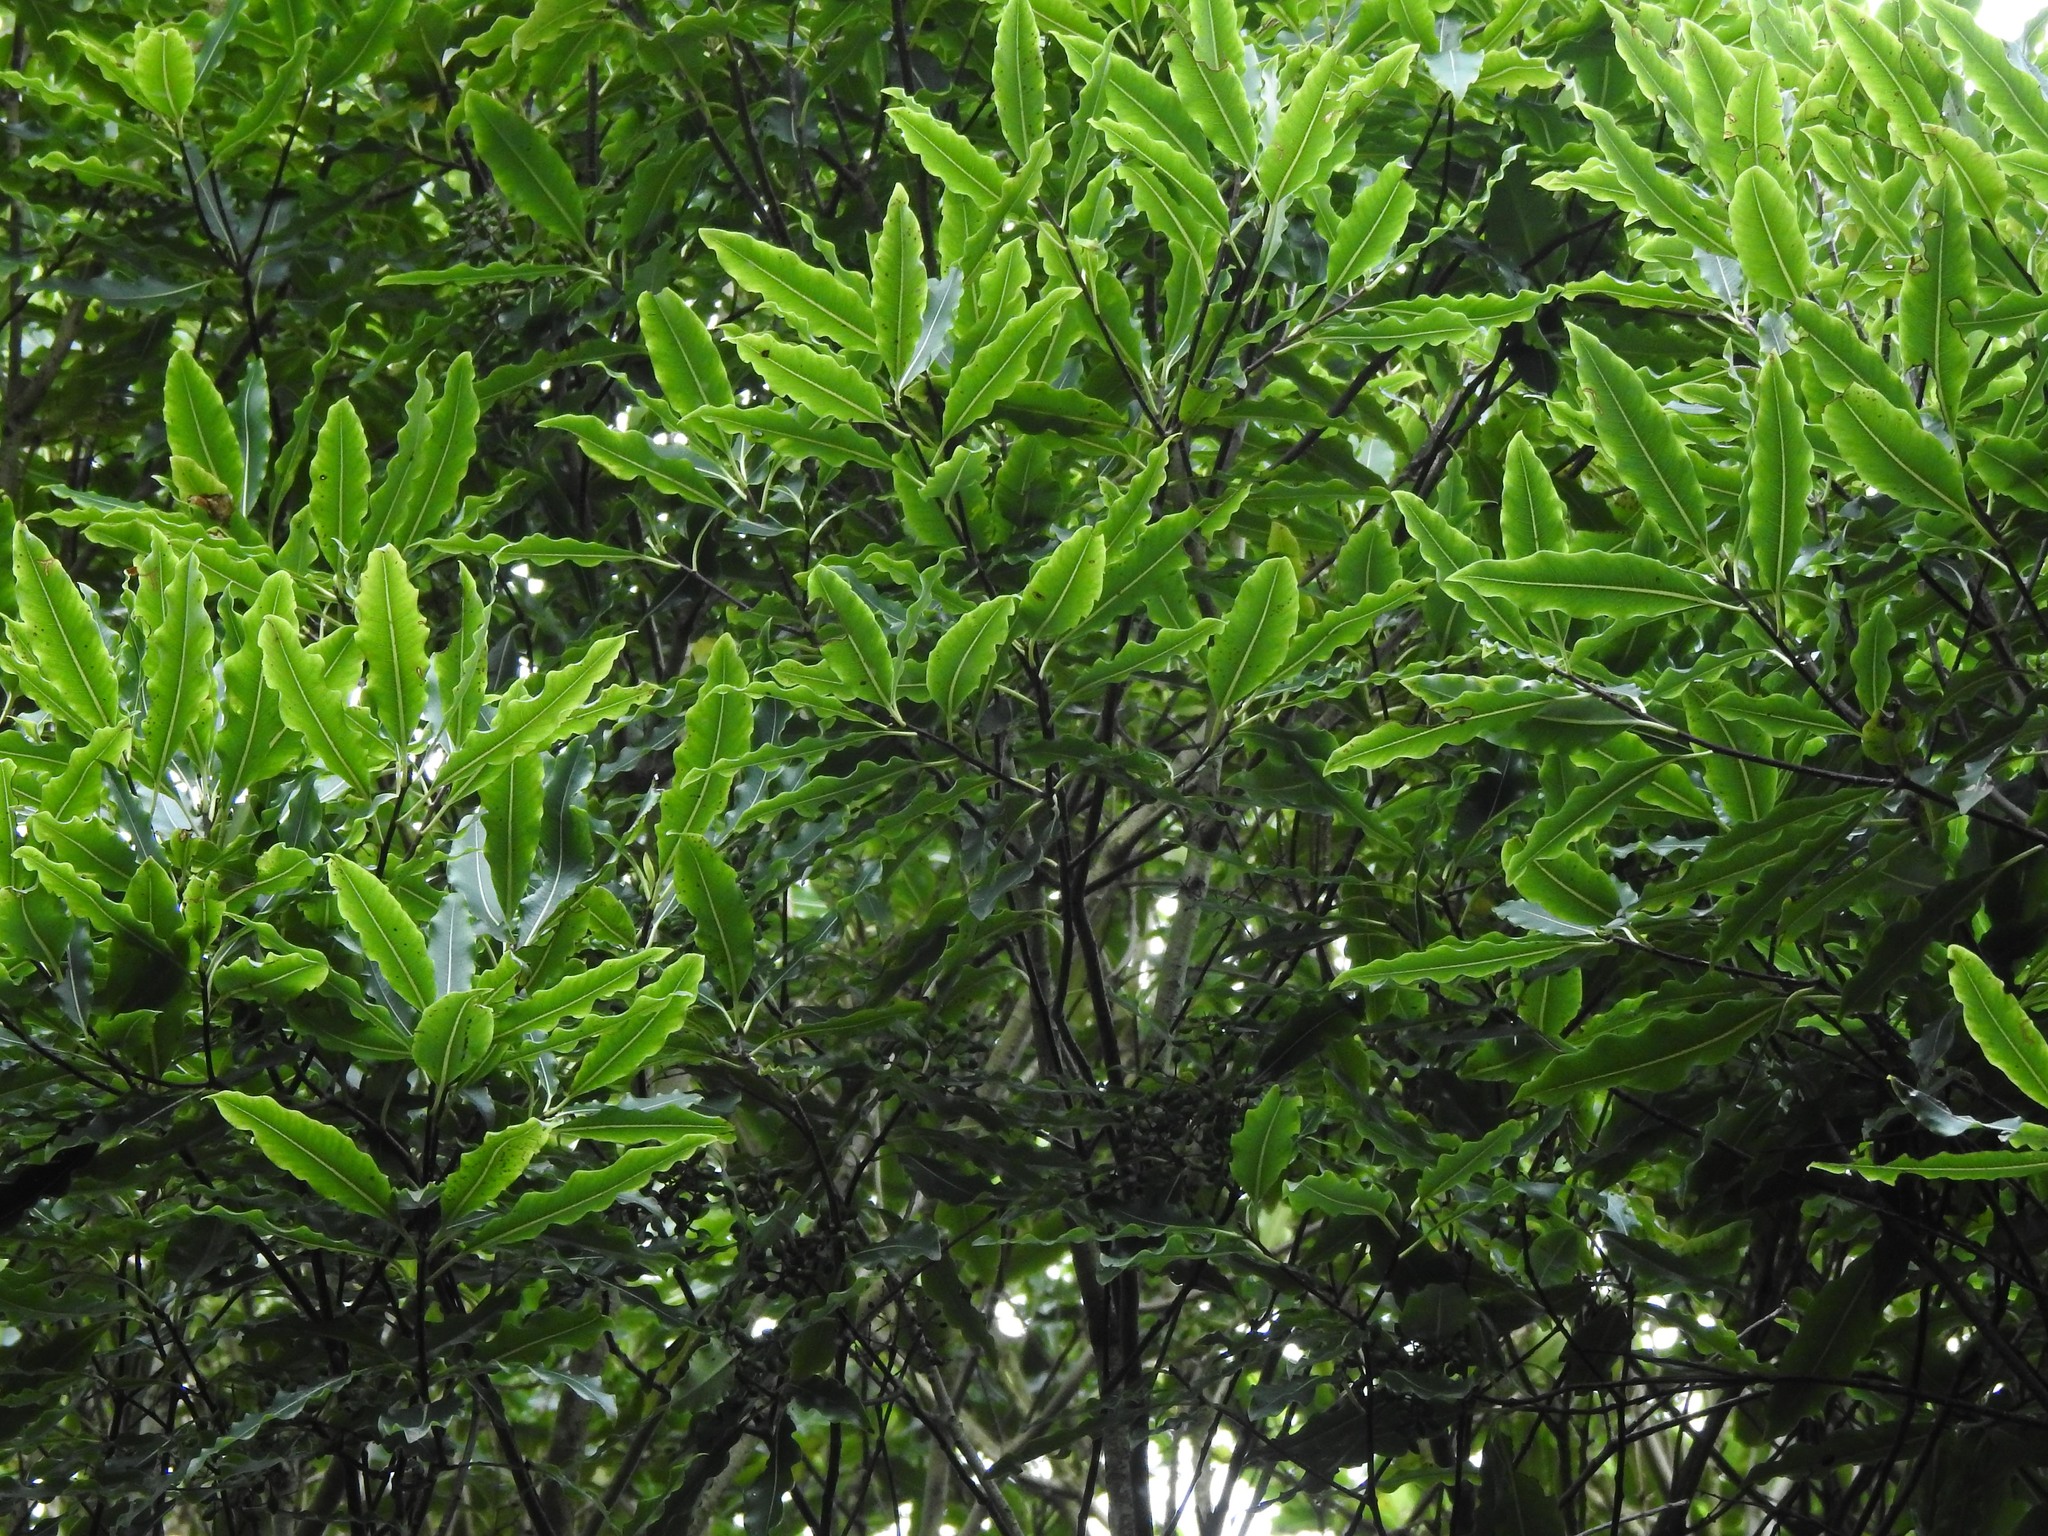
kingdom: Plantae
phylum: Tracheophyta
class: Magnoliopsida
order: Apiales
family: Pittosporaceae
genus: Pittosporum
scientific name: Pittosporum eugenioides
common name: Lemonwood
